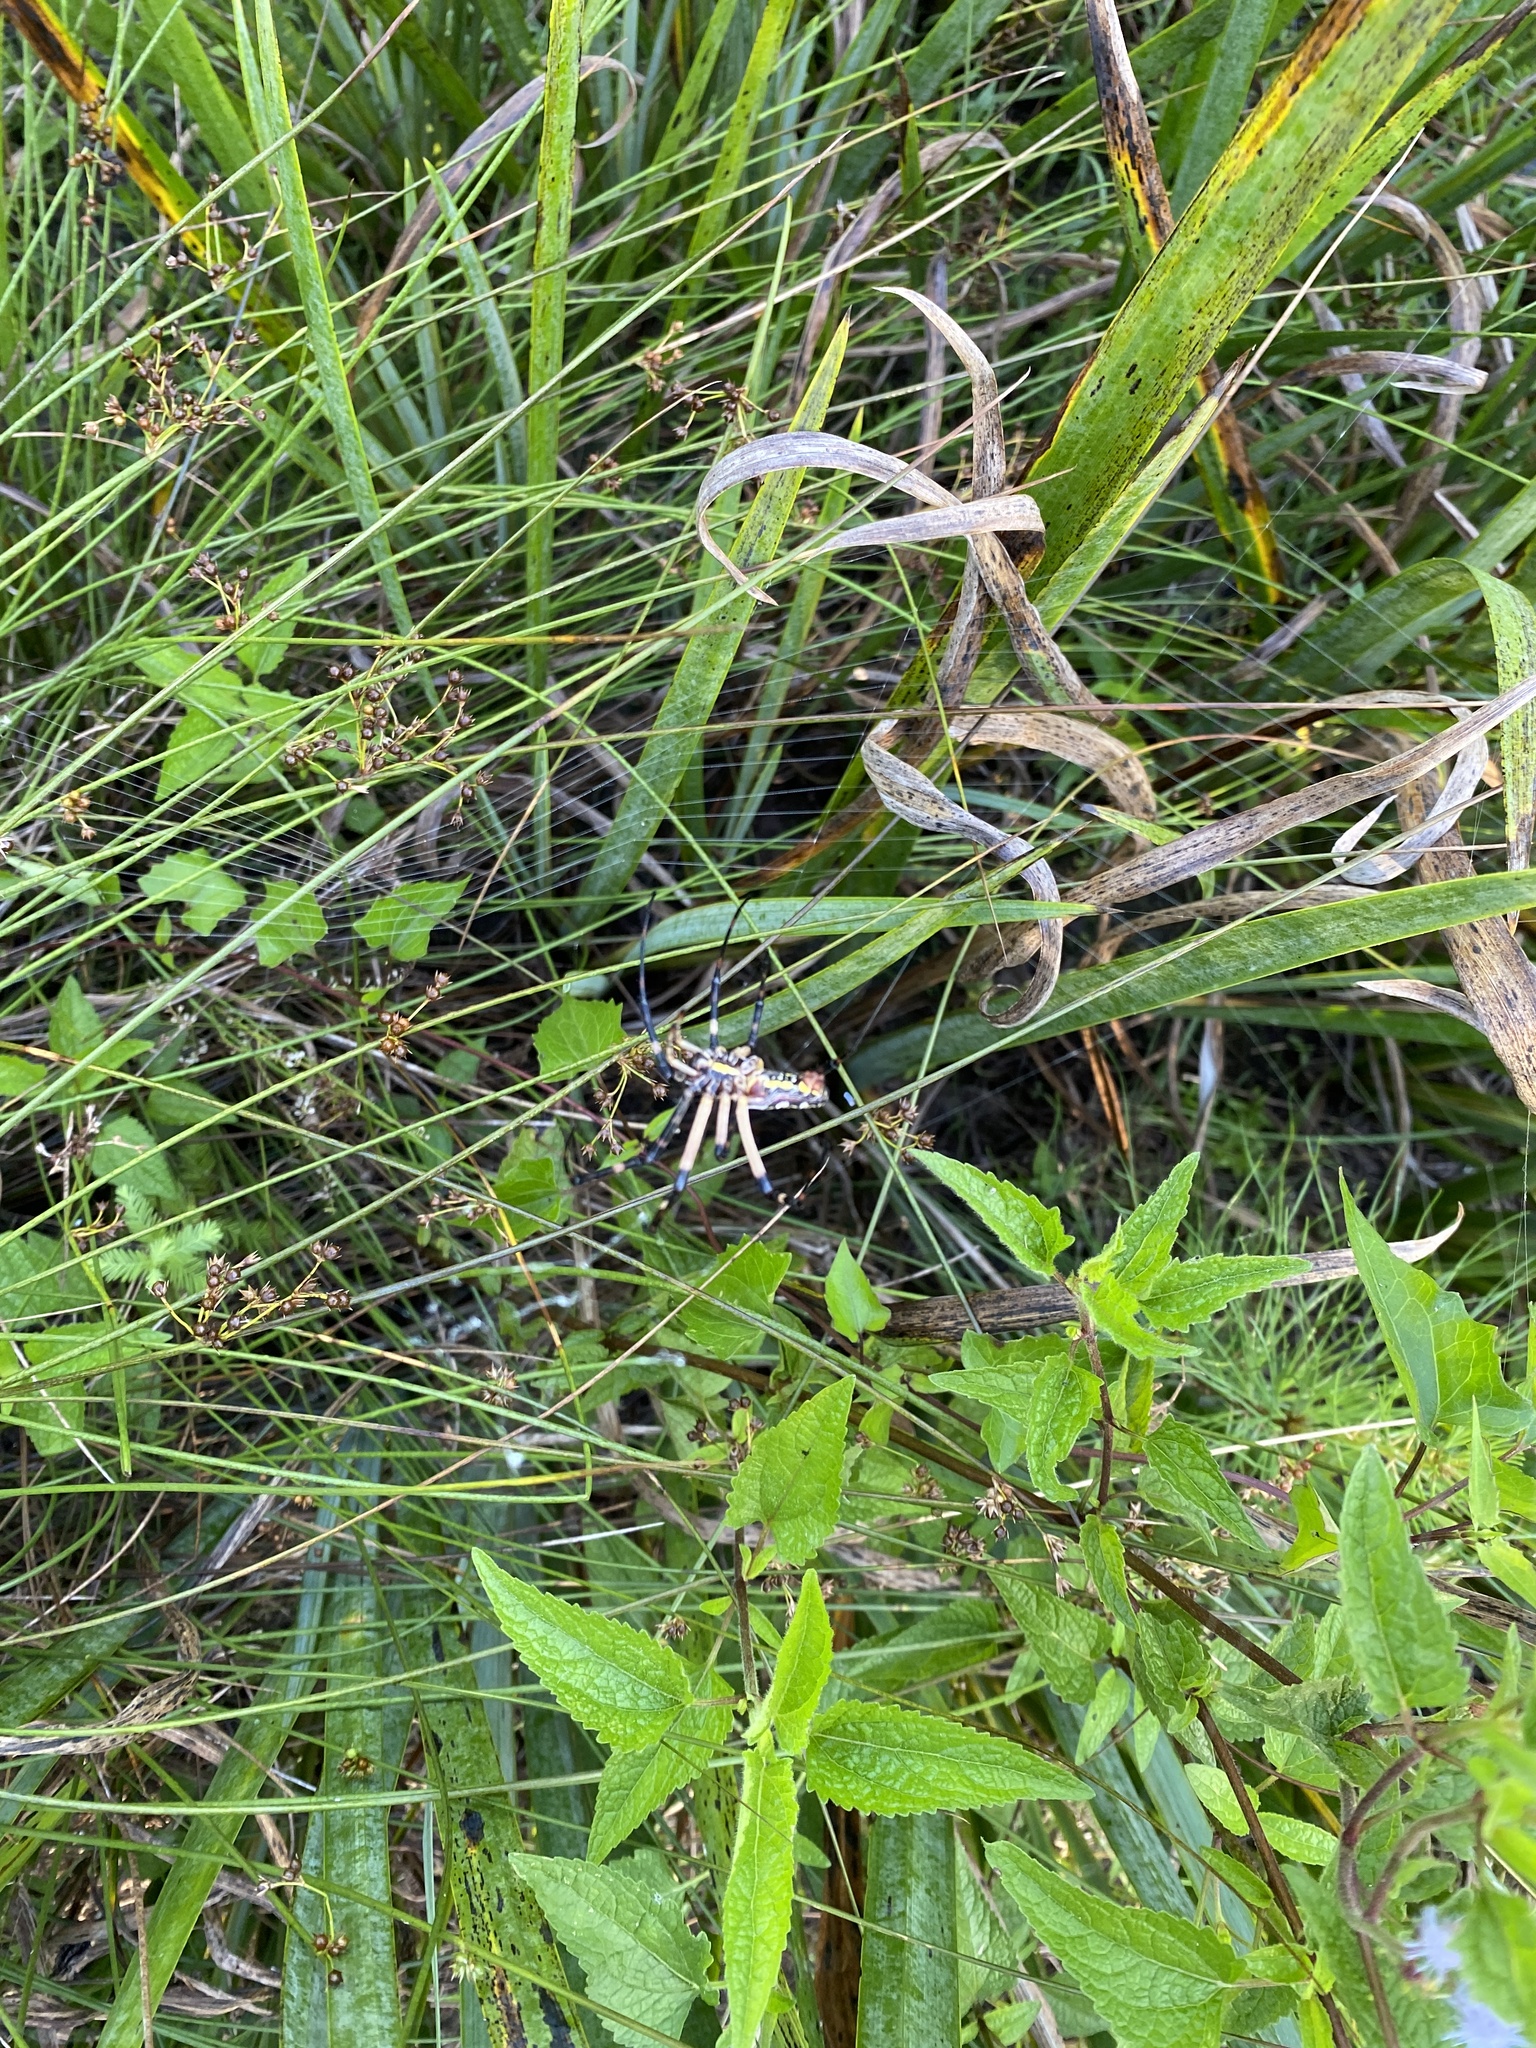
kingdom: Animalia
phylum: Arthropoda
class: Arachnida
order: Araneae
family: Araneidae
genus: Argiope
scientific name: Argiope aurantia
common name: Orb weavers
